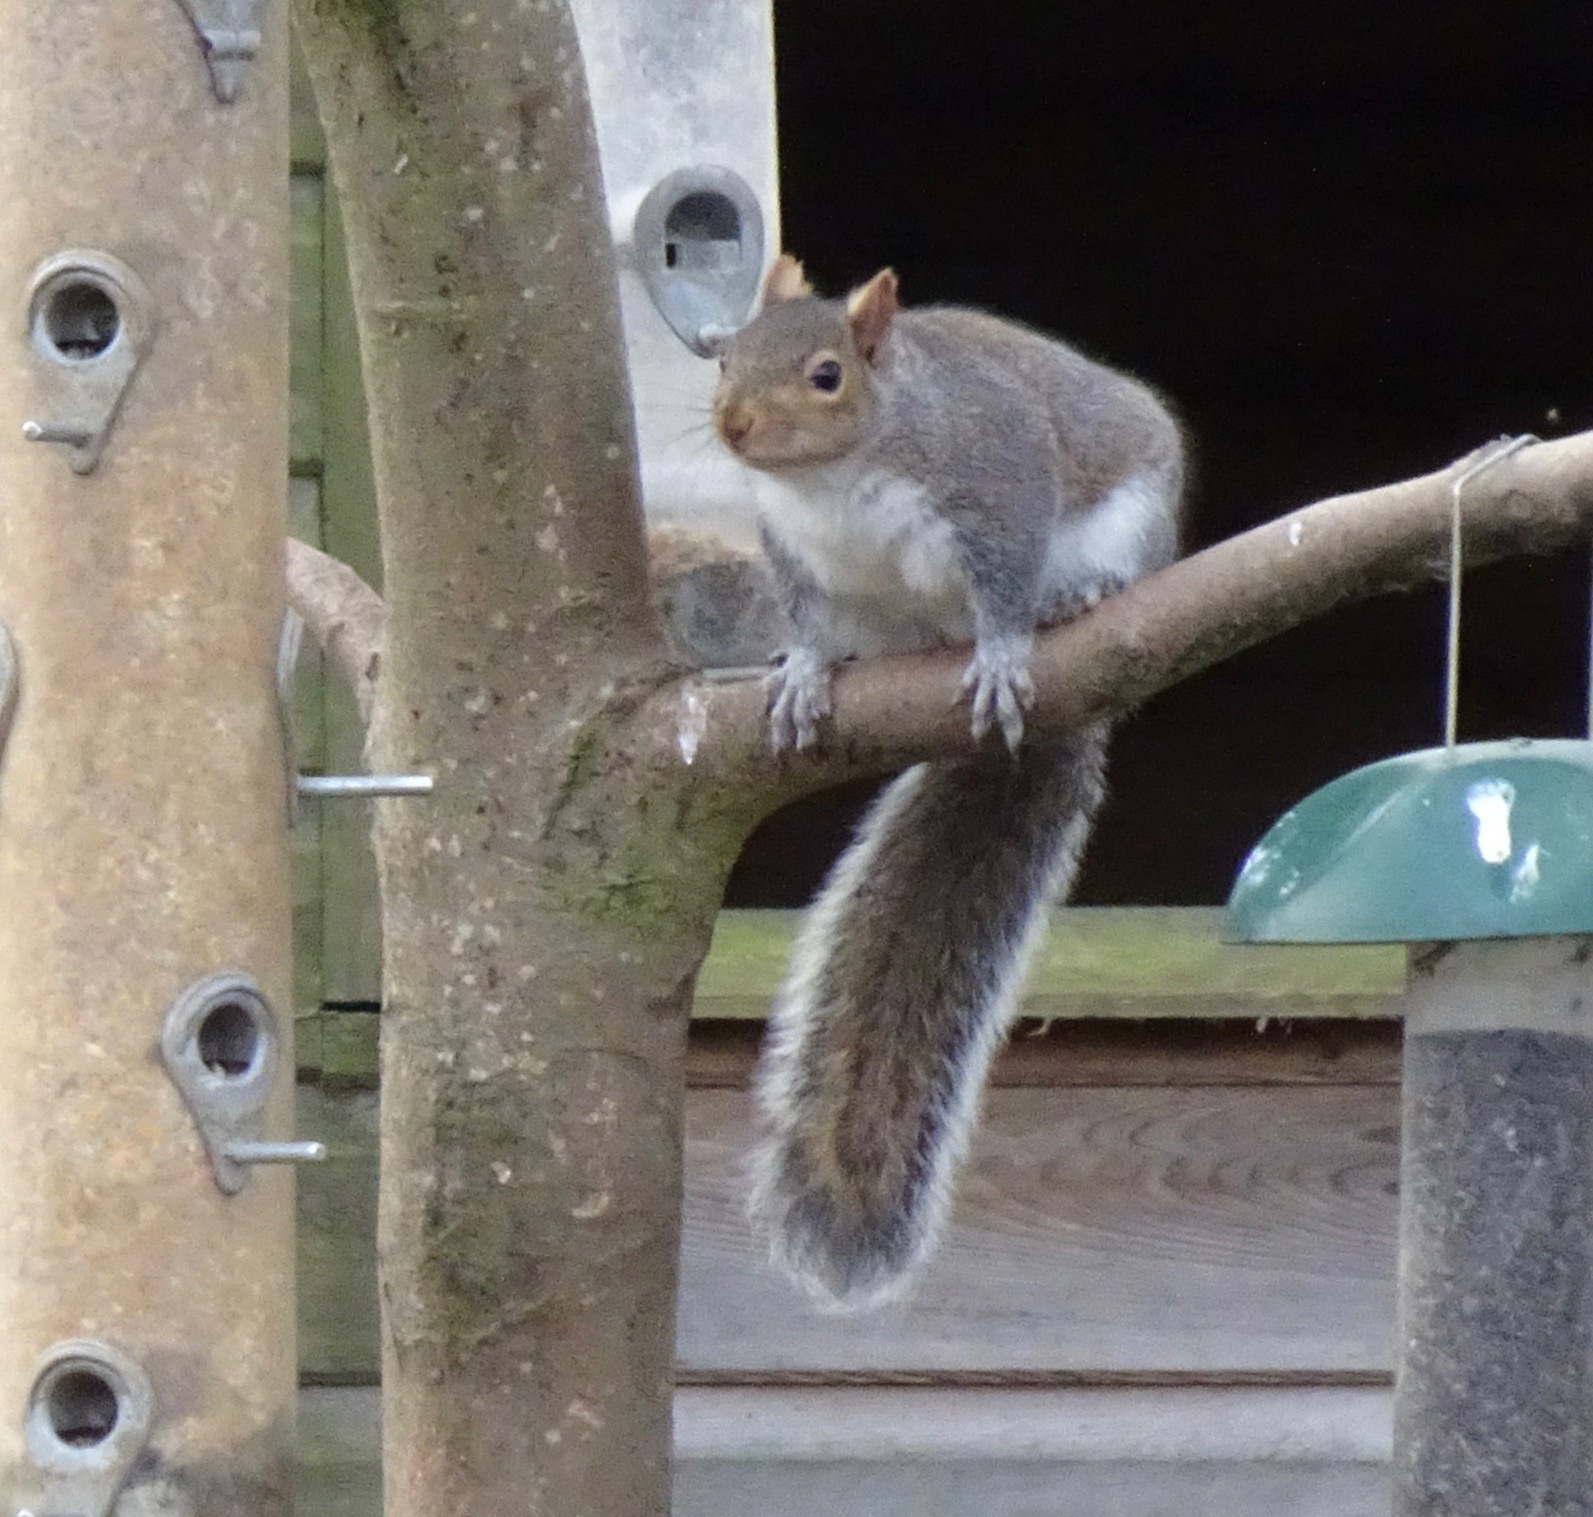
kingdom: Animalia
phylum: Chordata
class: Mammalia
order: Rodentia
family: Sciuridae
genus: Sciurus
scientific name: Sciurus carolinensis
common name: Eastern gray squirrel
